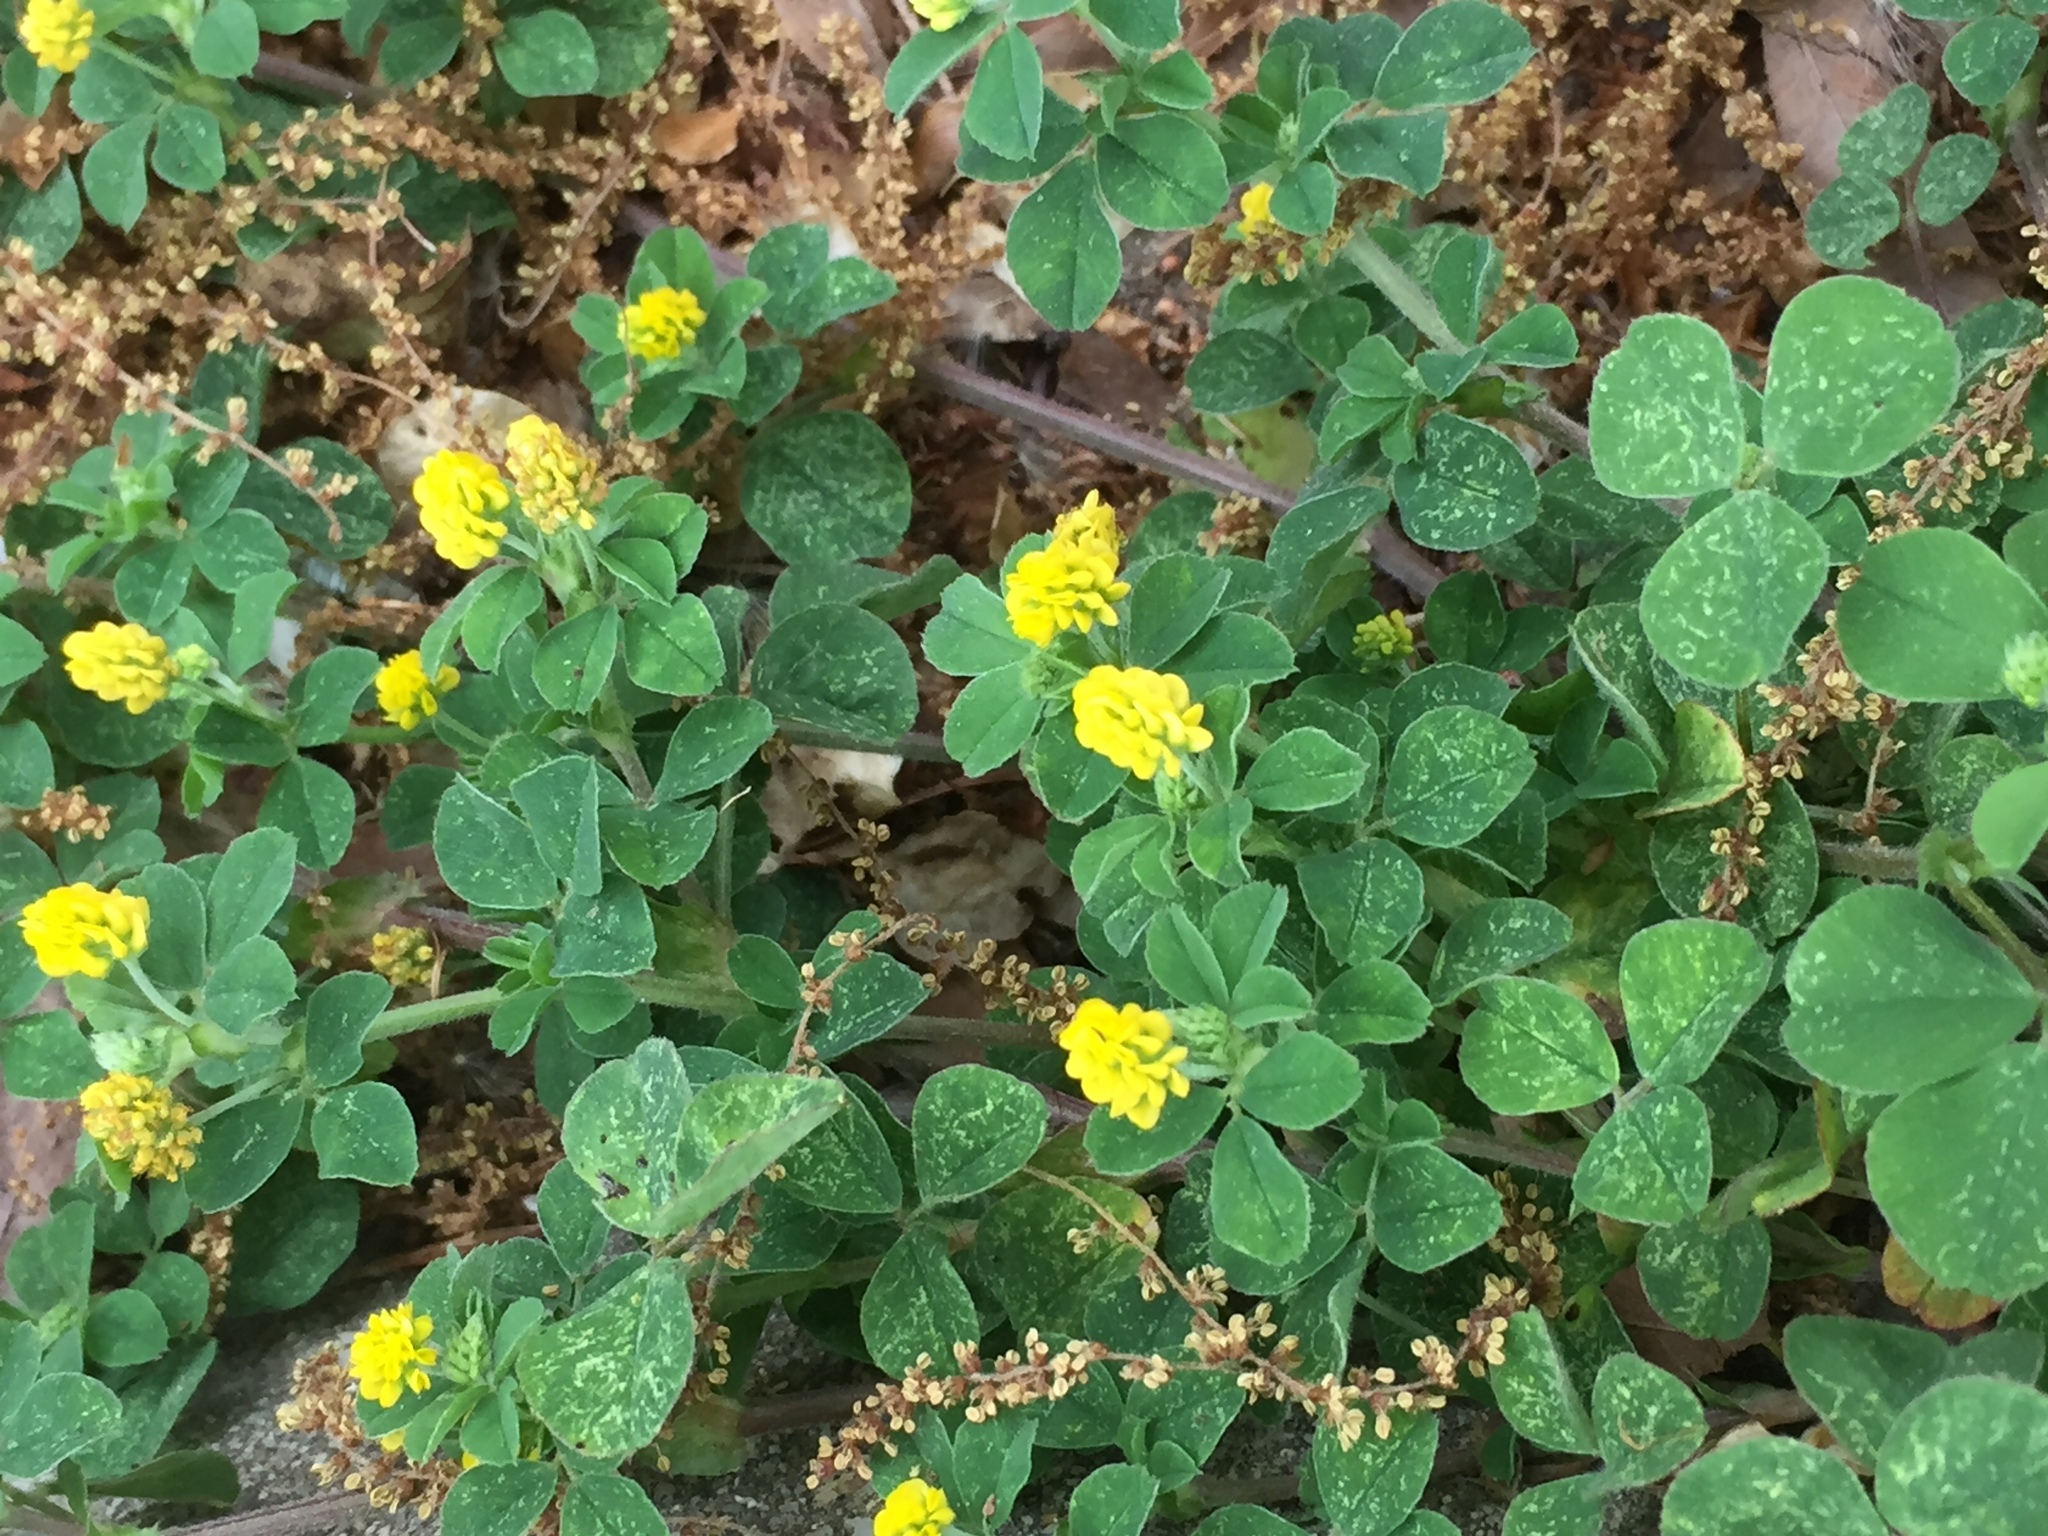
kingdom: Plantae
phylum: Tracheophyta
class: Magnoliopsida
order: Fabales
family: Fabaceae
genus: Medicago
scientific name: Medicago lupulina
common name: Black medick
